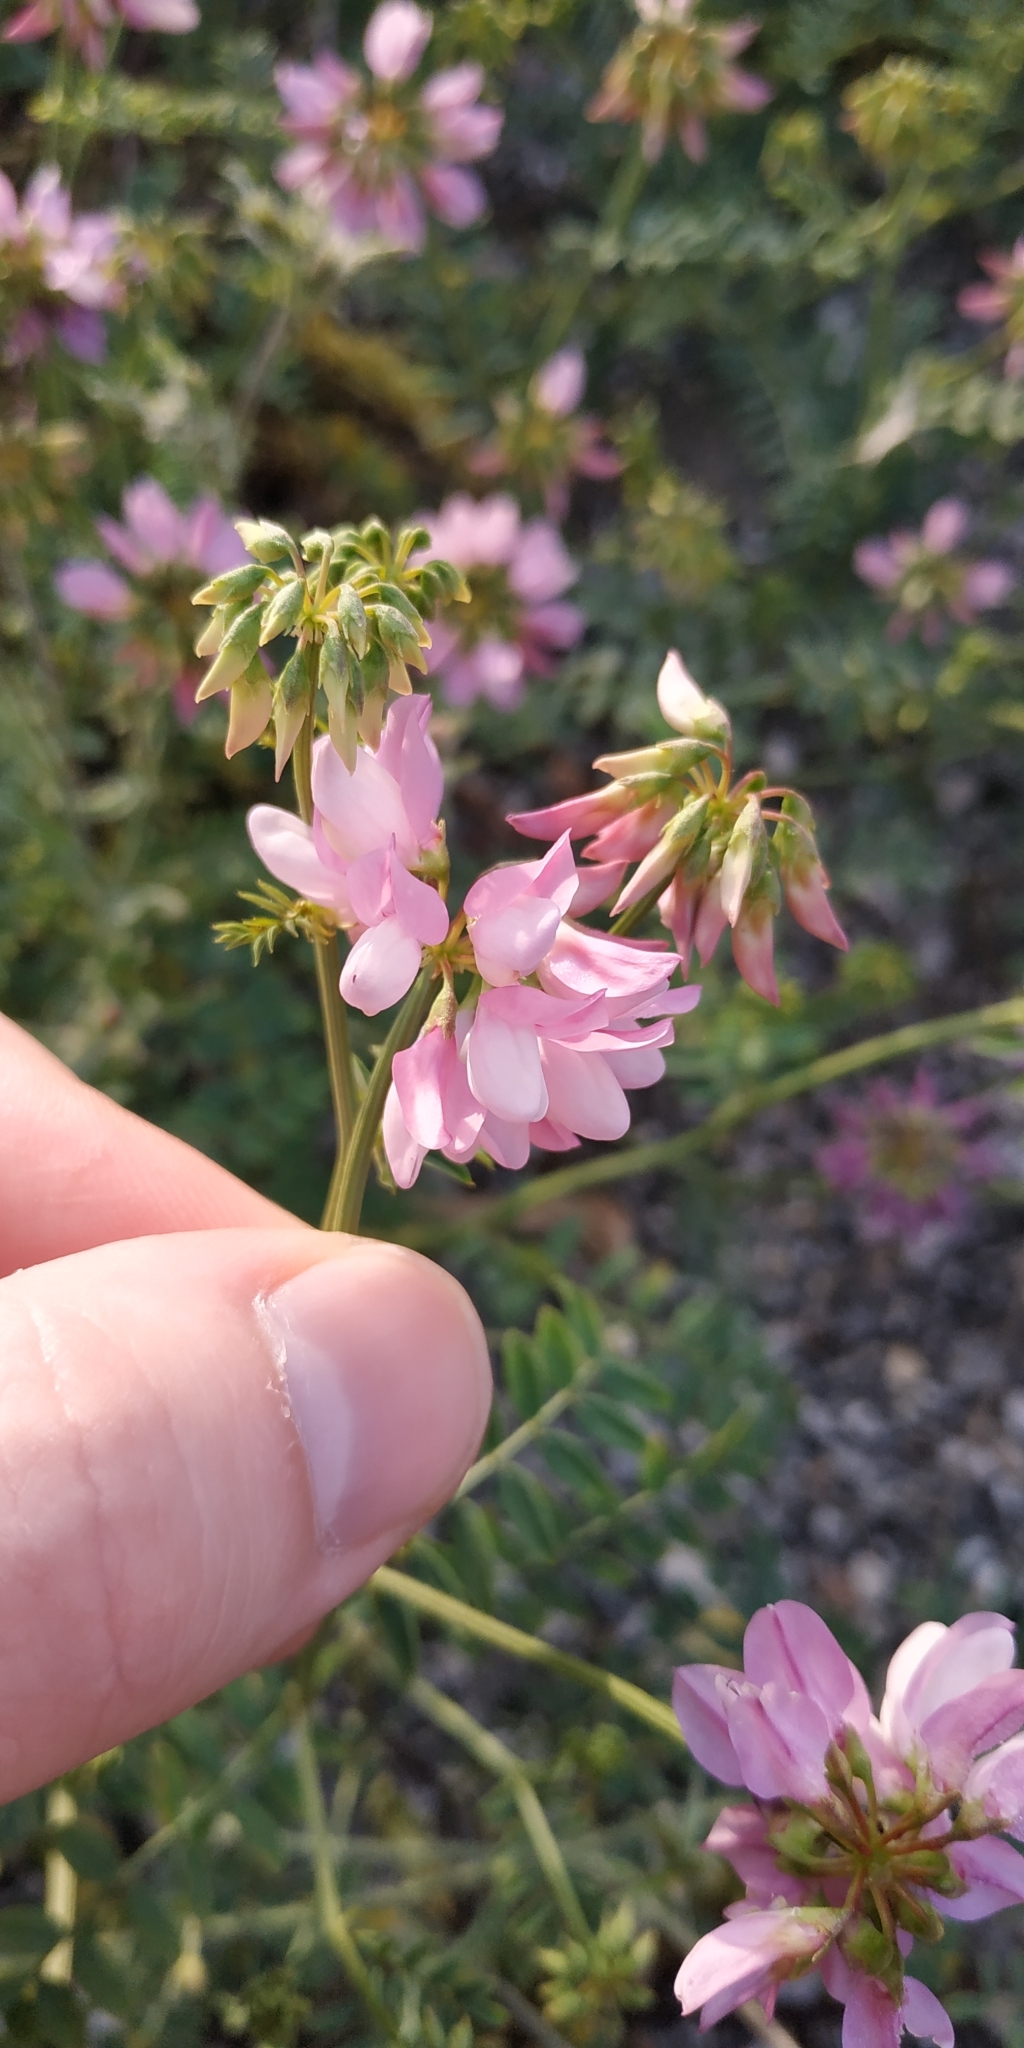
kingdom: Plantae
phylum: Tracheophyta
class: Magnoliopsida
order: Fabales
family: Fabaceae
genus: Coronilla
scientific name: Coronilla varia
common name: Crownvetch
